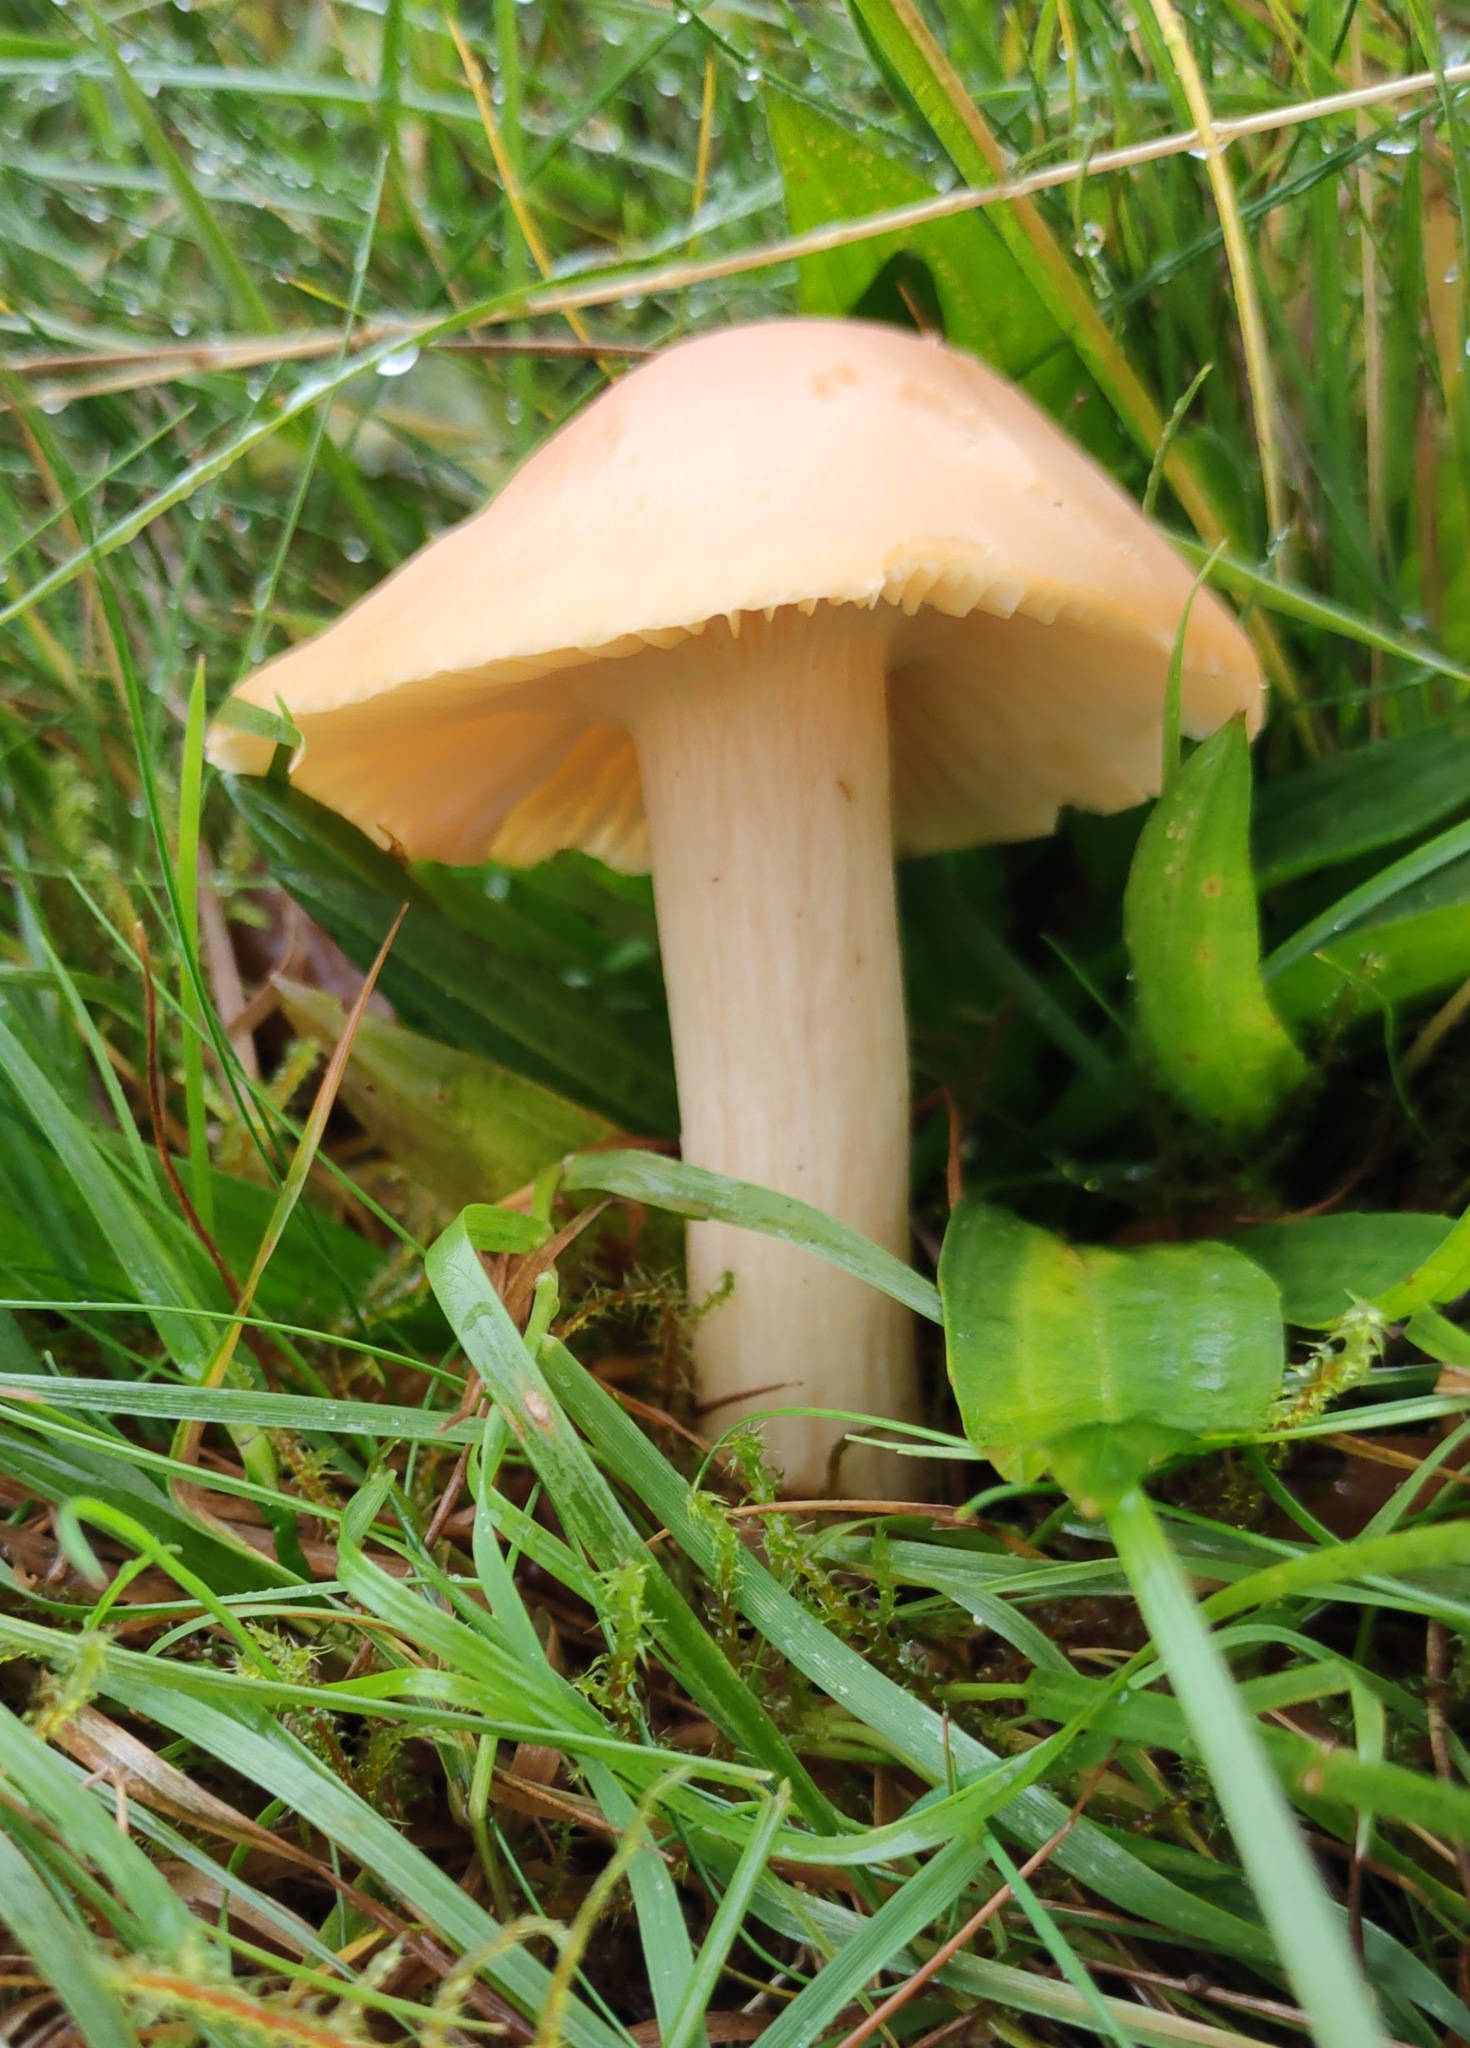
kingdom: Fungi
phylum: Basidiomycota
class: Agaricomycetes
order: Agaricales
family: Hygrophoraceae
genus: Cuphophyllus
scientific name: Cuphophyllus pratensis
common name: Meadow waxcap
